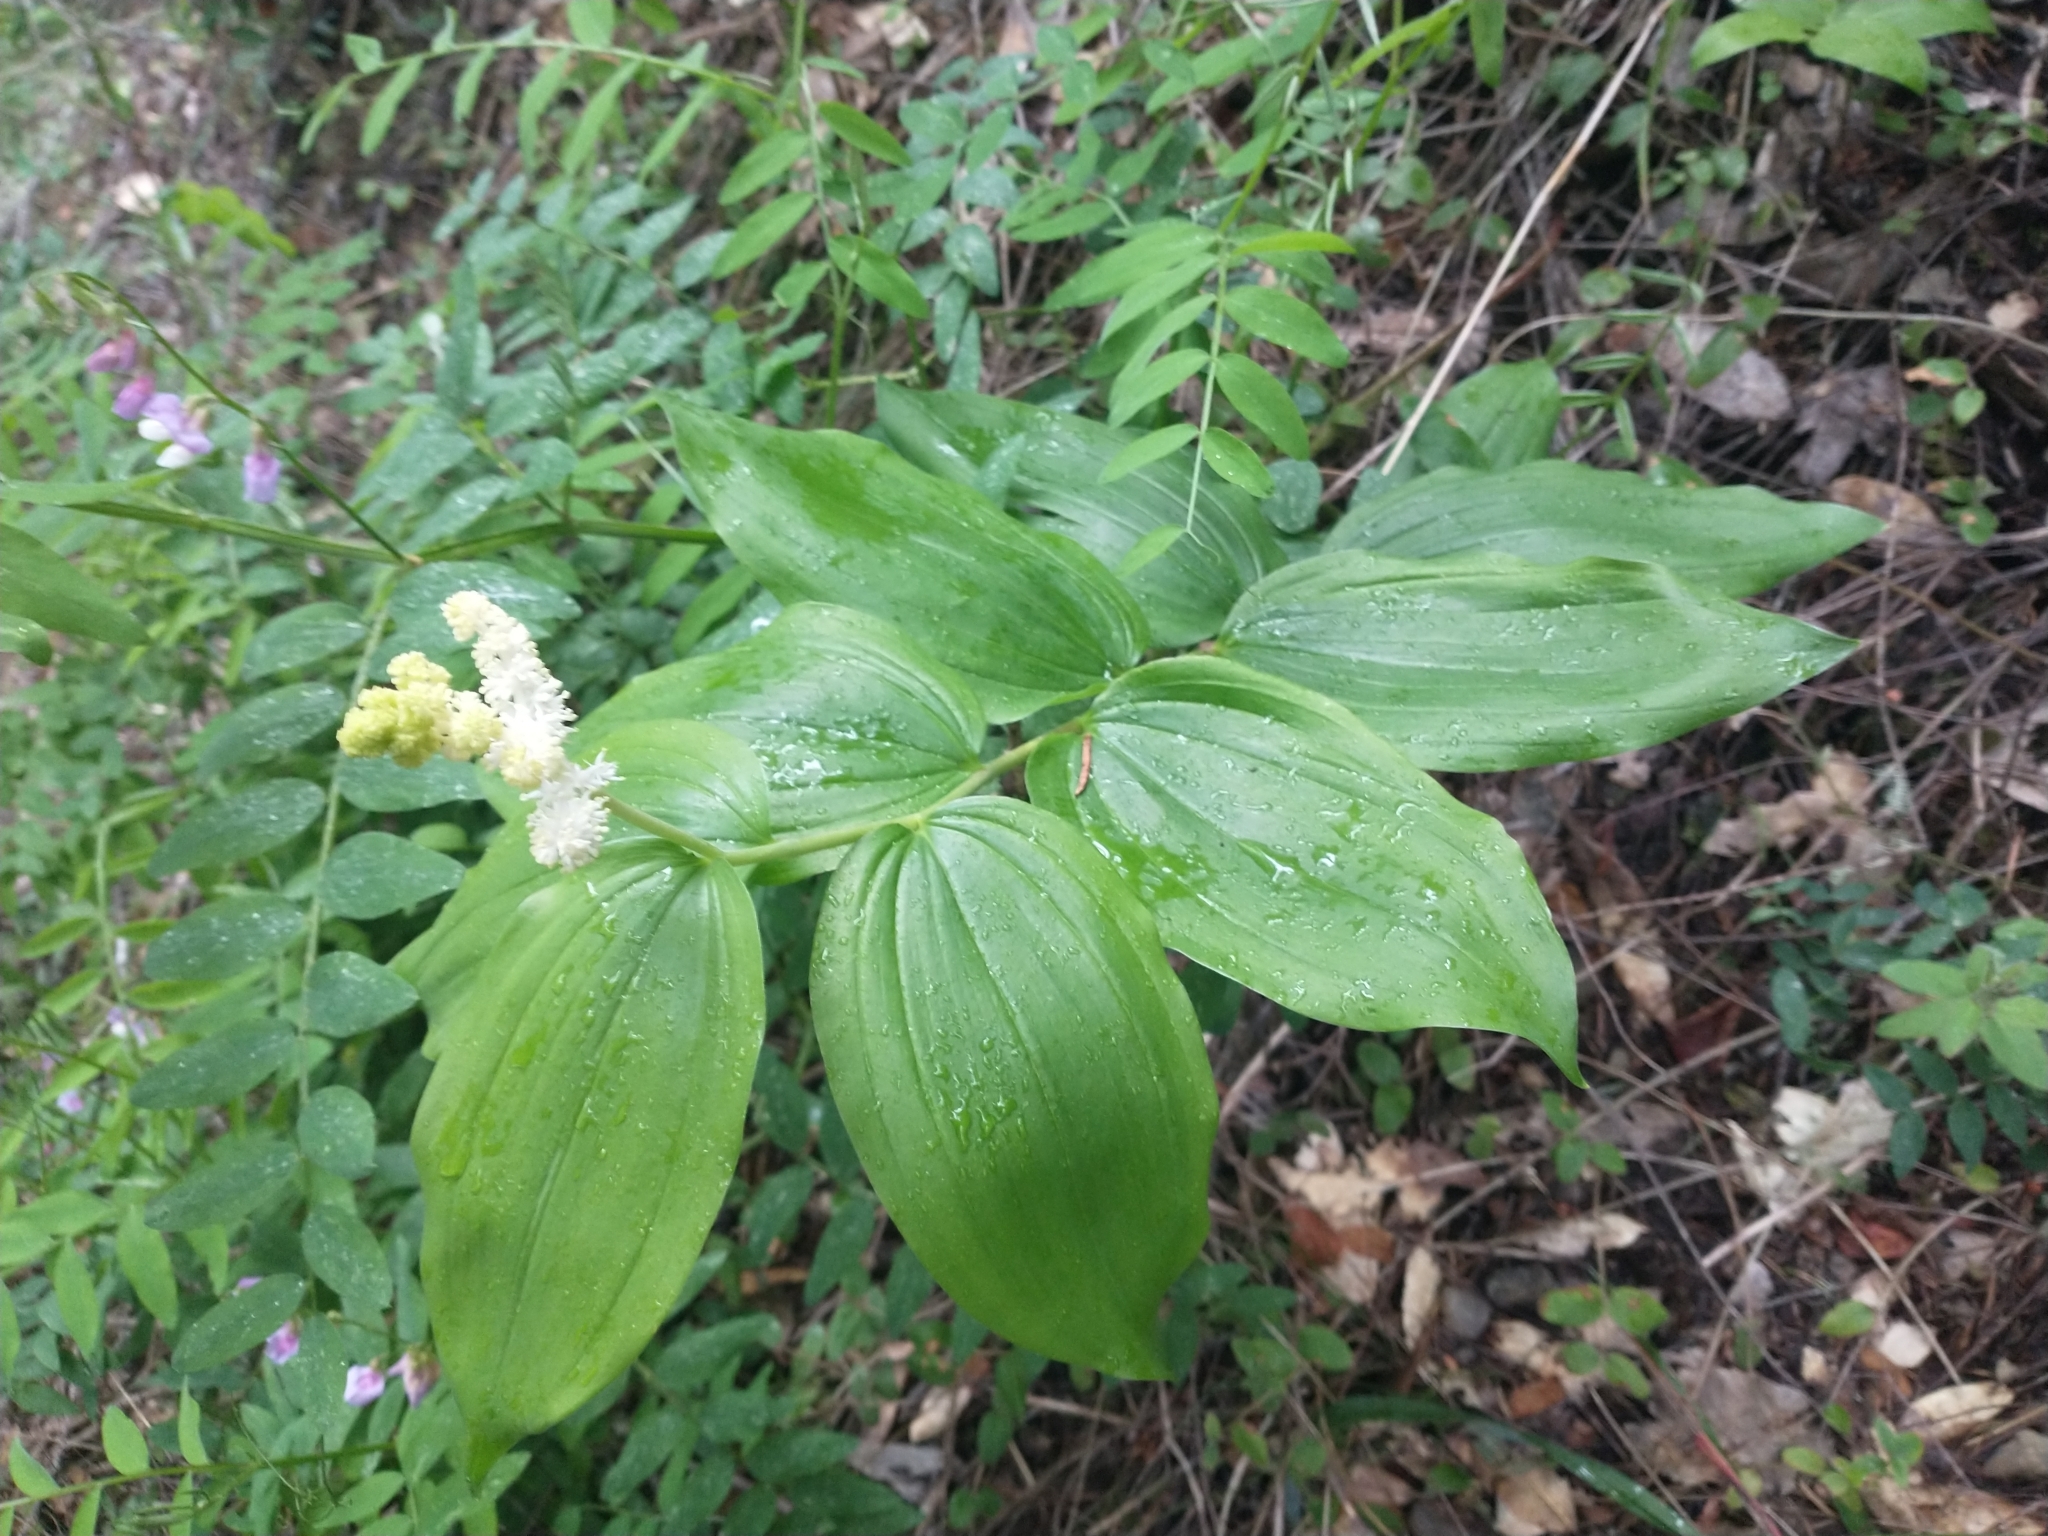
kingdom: Plantae
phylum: Tracheophyta
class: Liliopsida
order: Asparagales
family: Asparagaceae
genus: Maianthemum
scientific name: Maianthemum racemosum
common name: False spikenard
